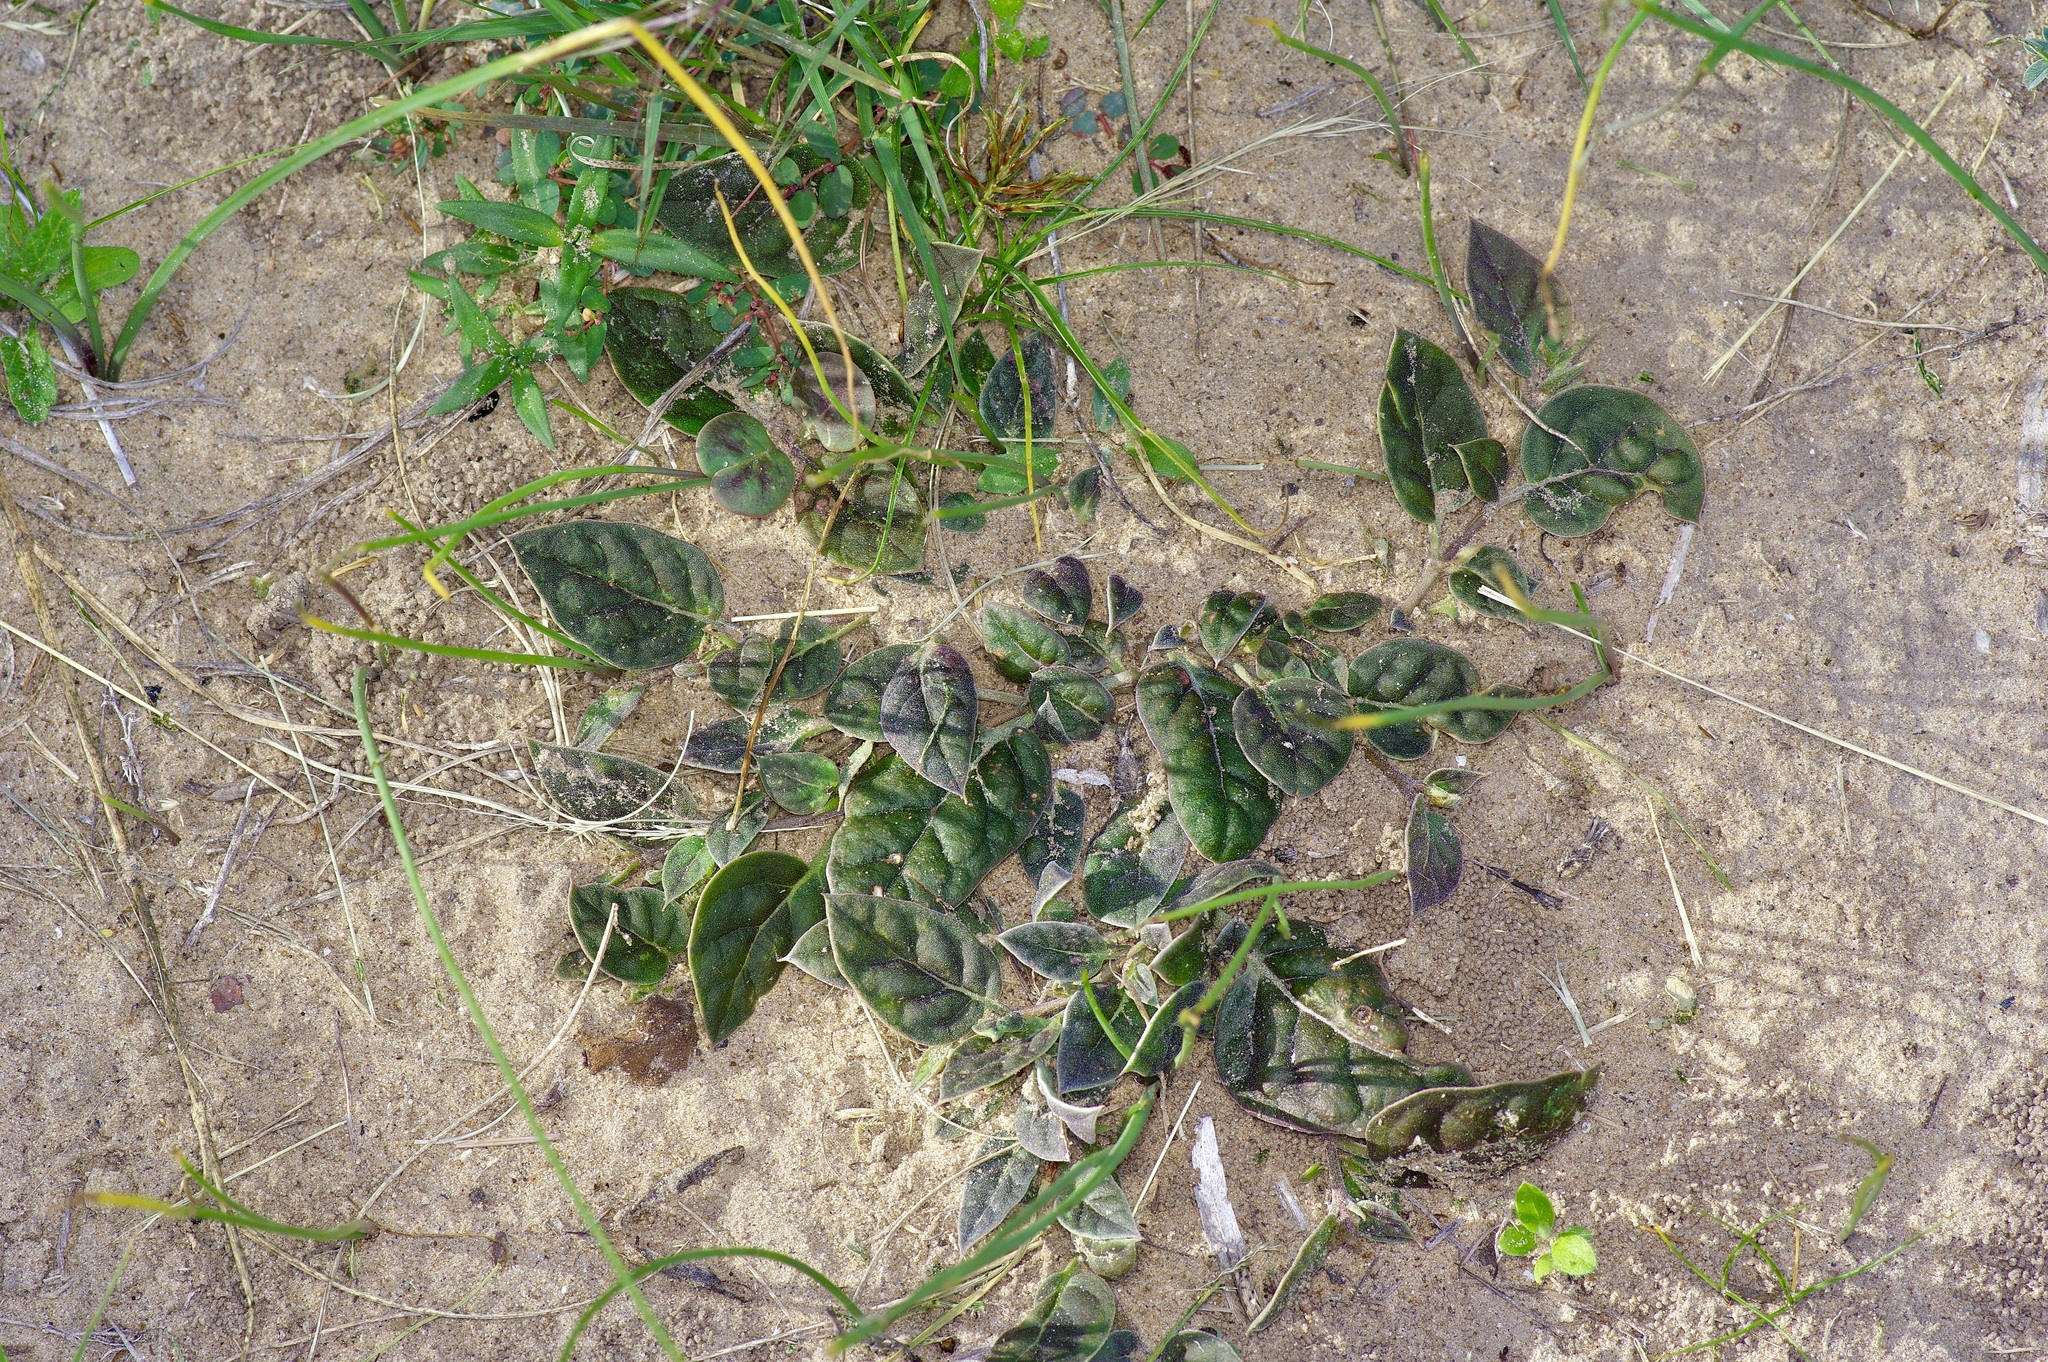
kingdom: Plantae
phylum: Tracheophyta
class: Magnoliopsida
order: Caryophyllales
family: Nyctaginaceae
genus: Acleisanthes
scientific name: Acleisanthes anisophylla
